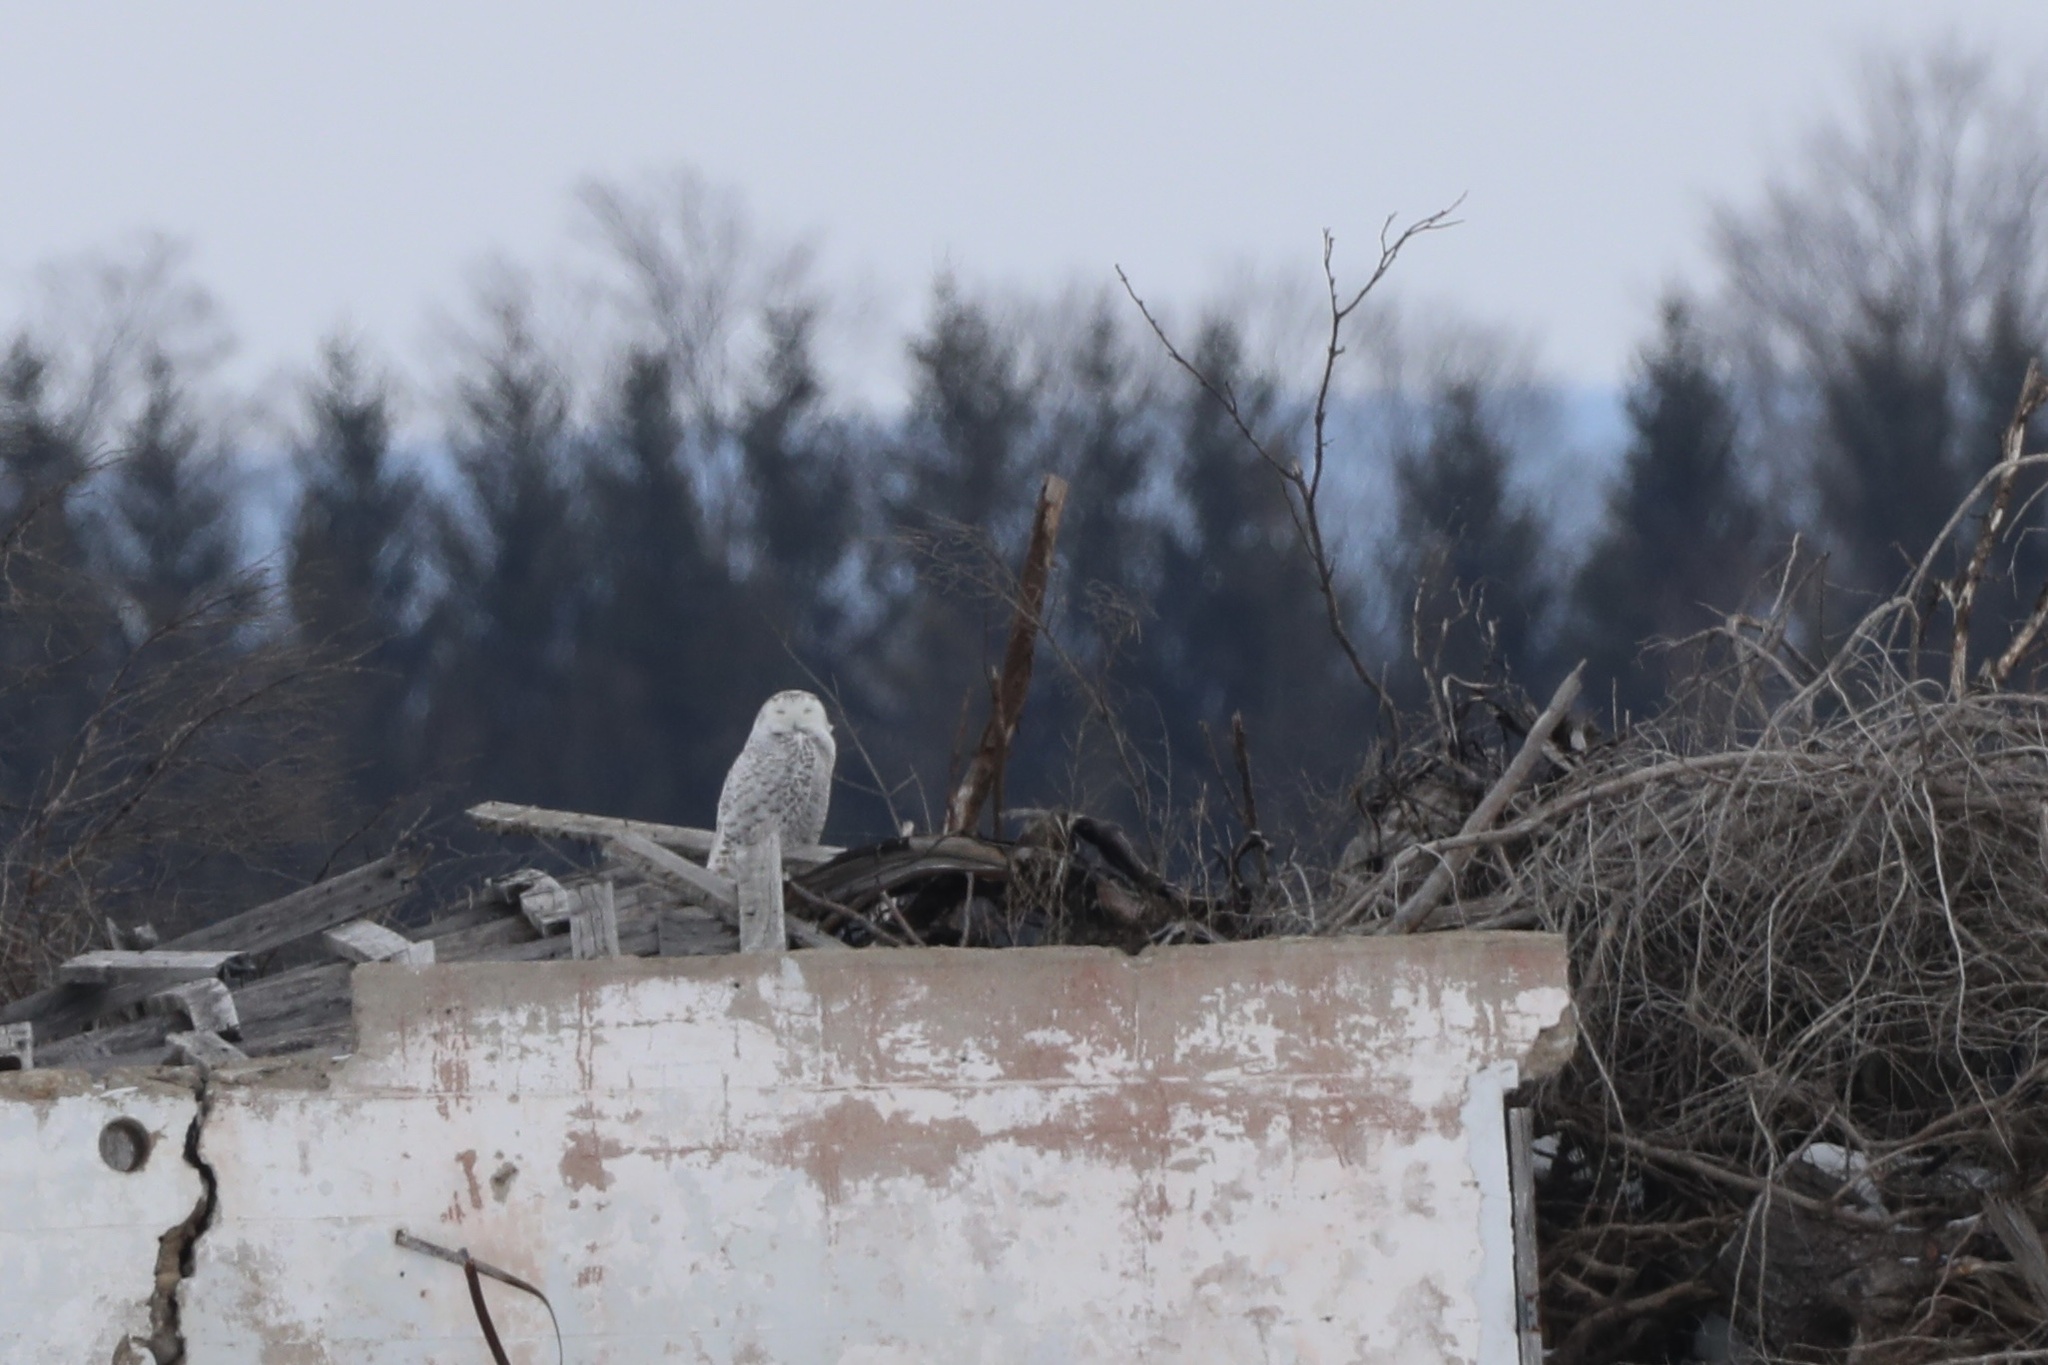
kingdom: Animalia
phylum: Chordata
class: Aves
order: Strigiformes
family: Strigidae
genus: Bubo
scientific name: Bubo scandiacus
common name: Snowy owl
